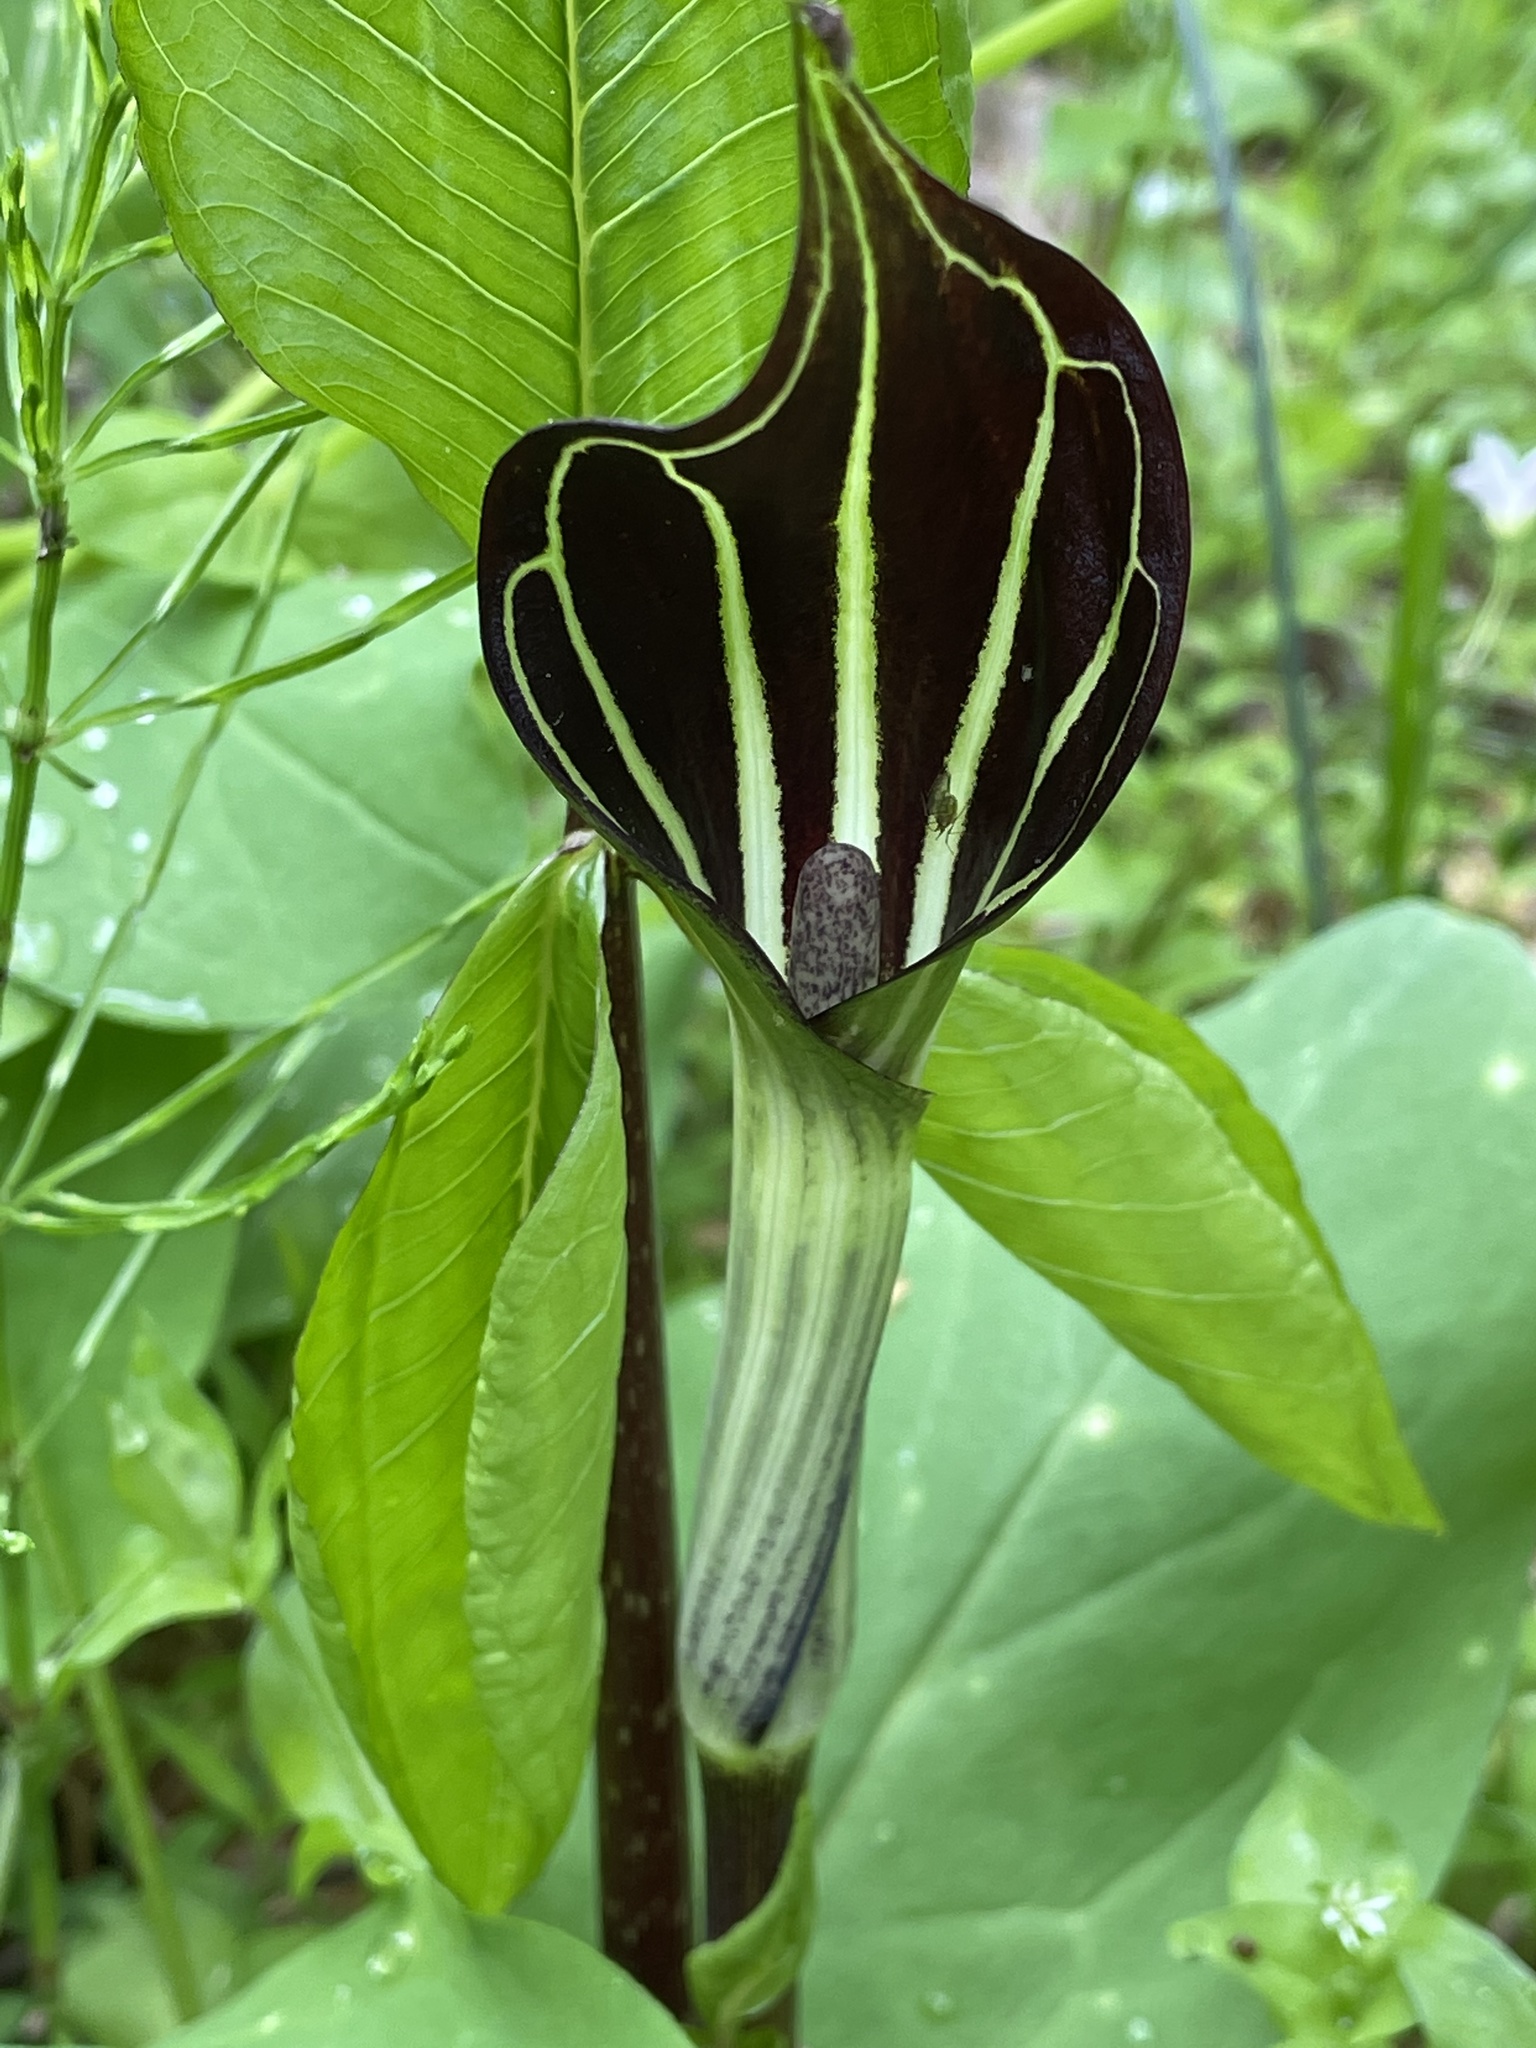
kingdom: Plantae
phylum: Tracheophyta
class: Liliopsida
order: Alismatales
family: Araceae
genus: Arisaema
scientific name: Arisaema triphyllum
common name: Jack-in-the-pulpit
